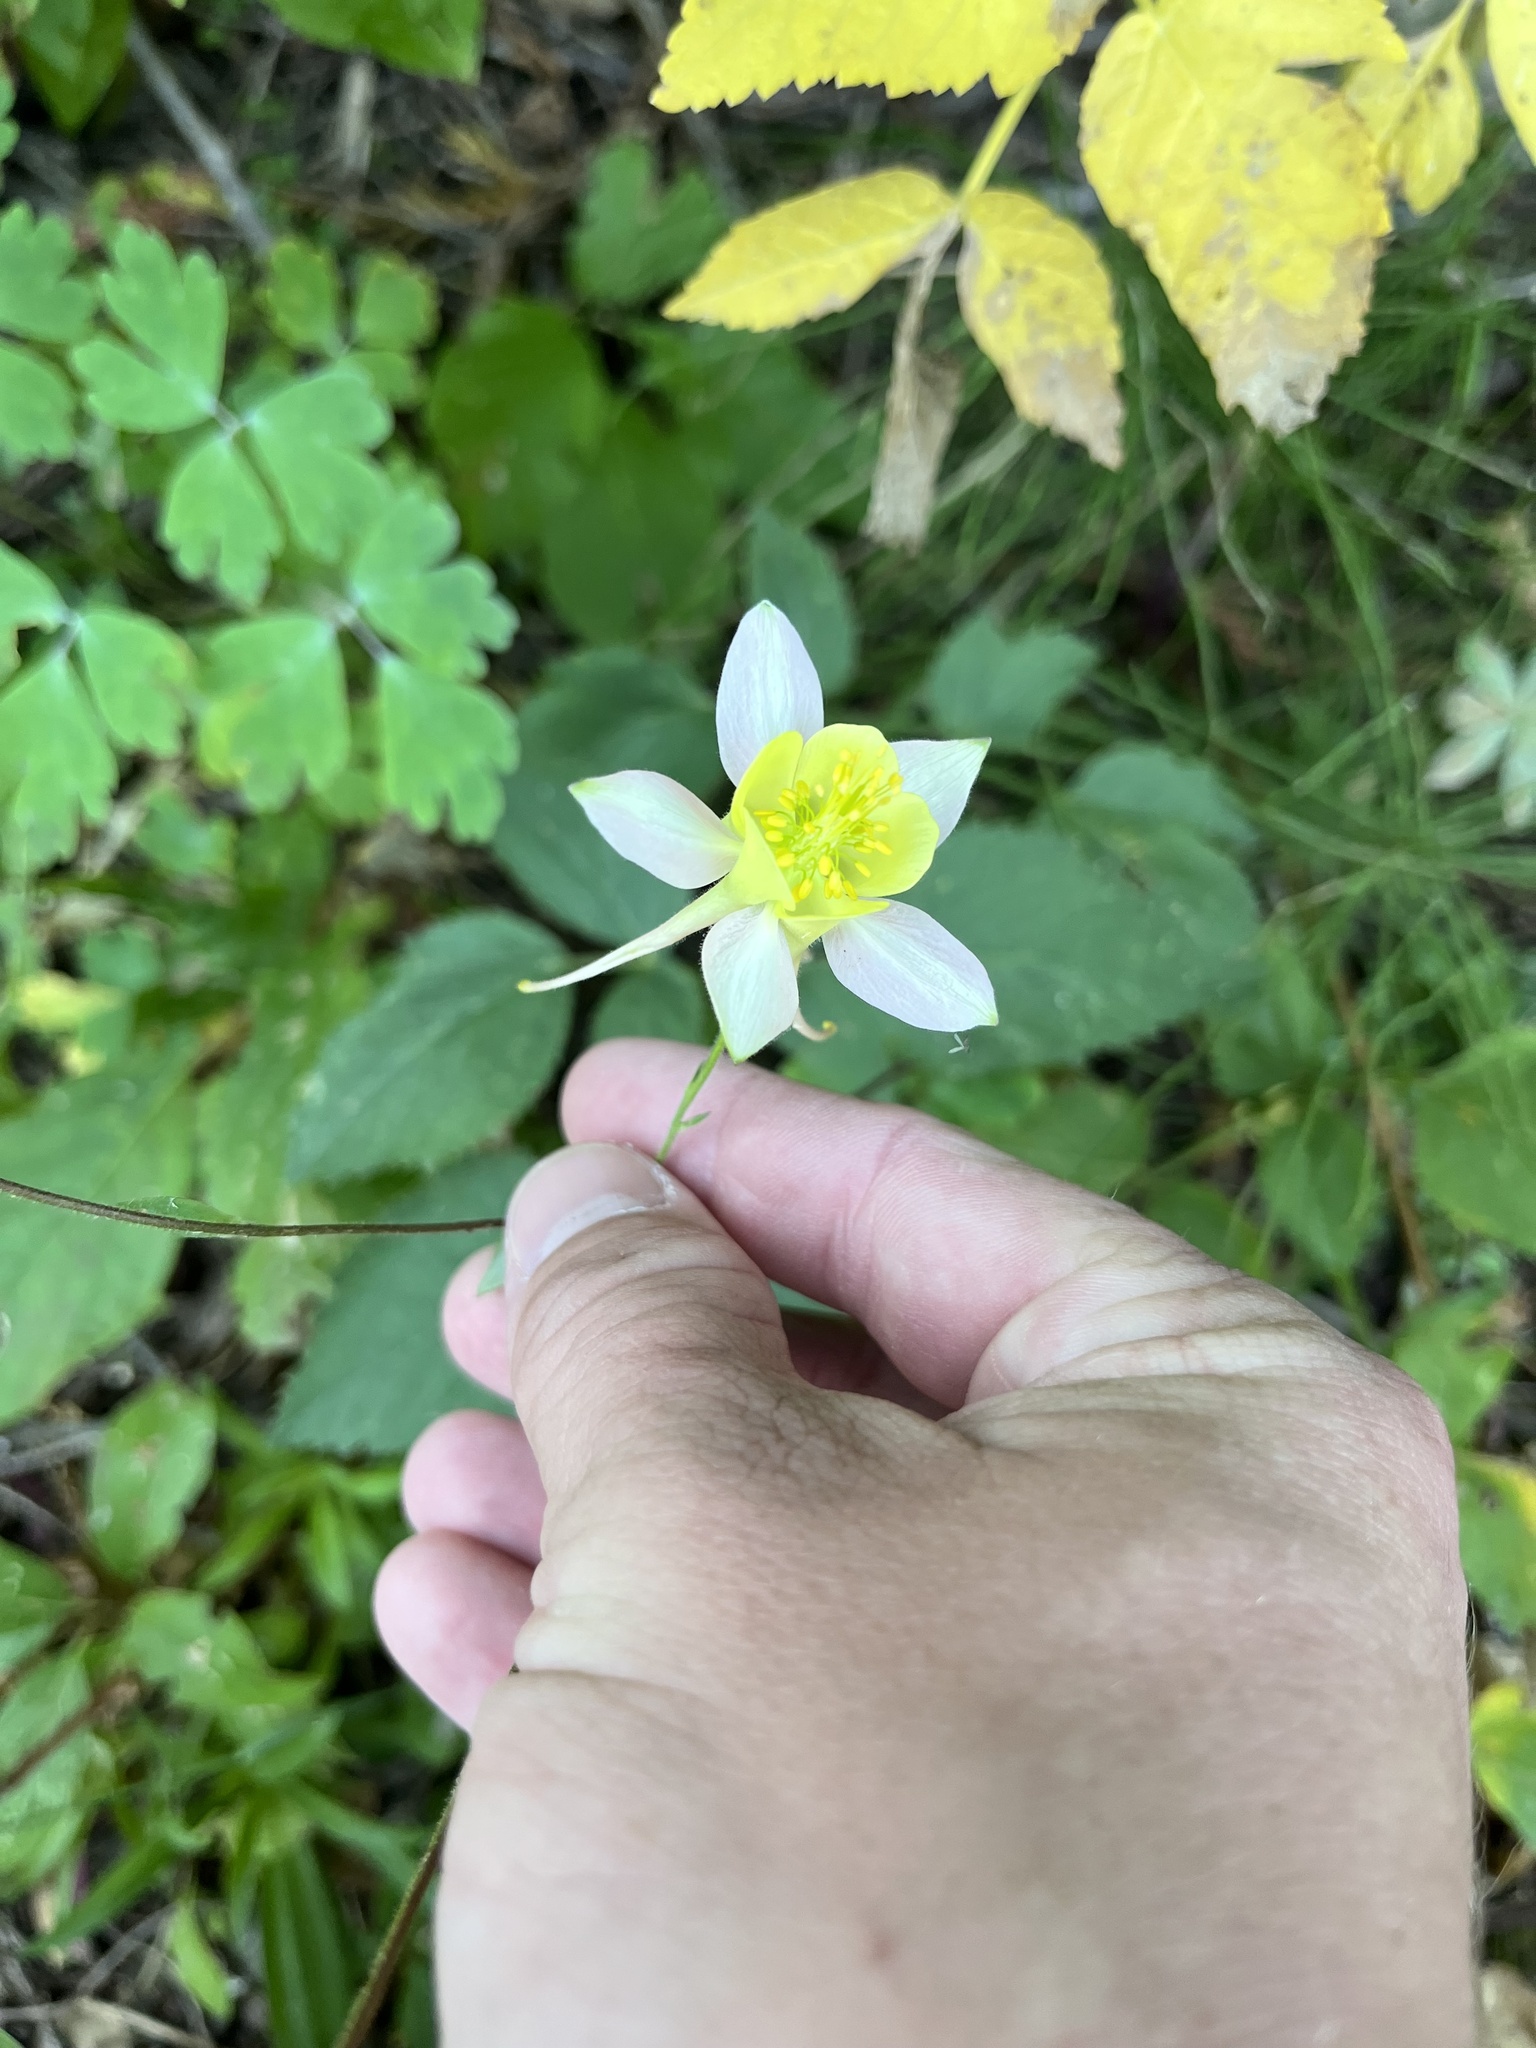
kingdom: Plantae
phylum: Tracheophyta
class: Magnoliopsida
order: Ranunculales
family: Ranunculaceae
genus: Aquilegia
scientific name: Aquilegia flavescens
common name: Yellow columbine
